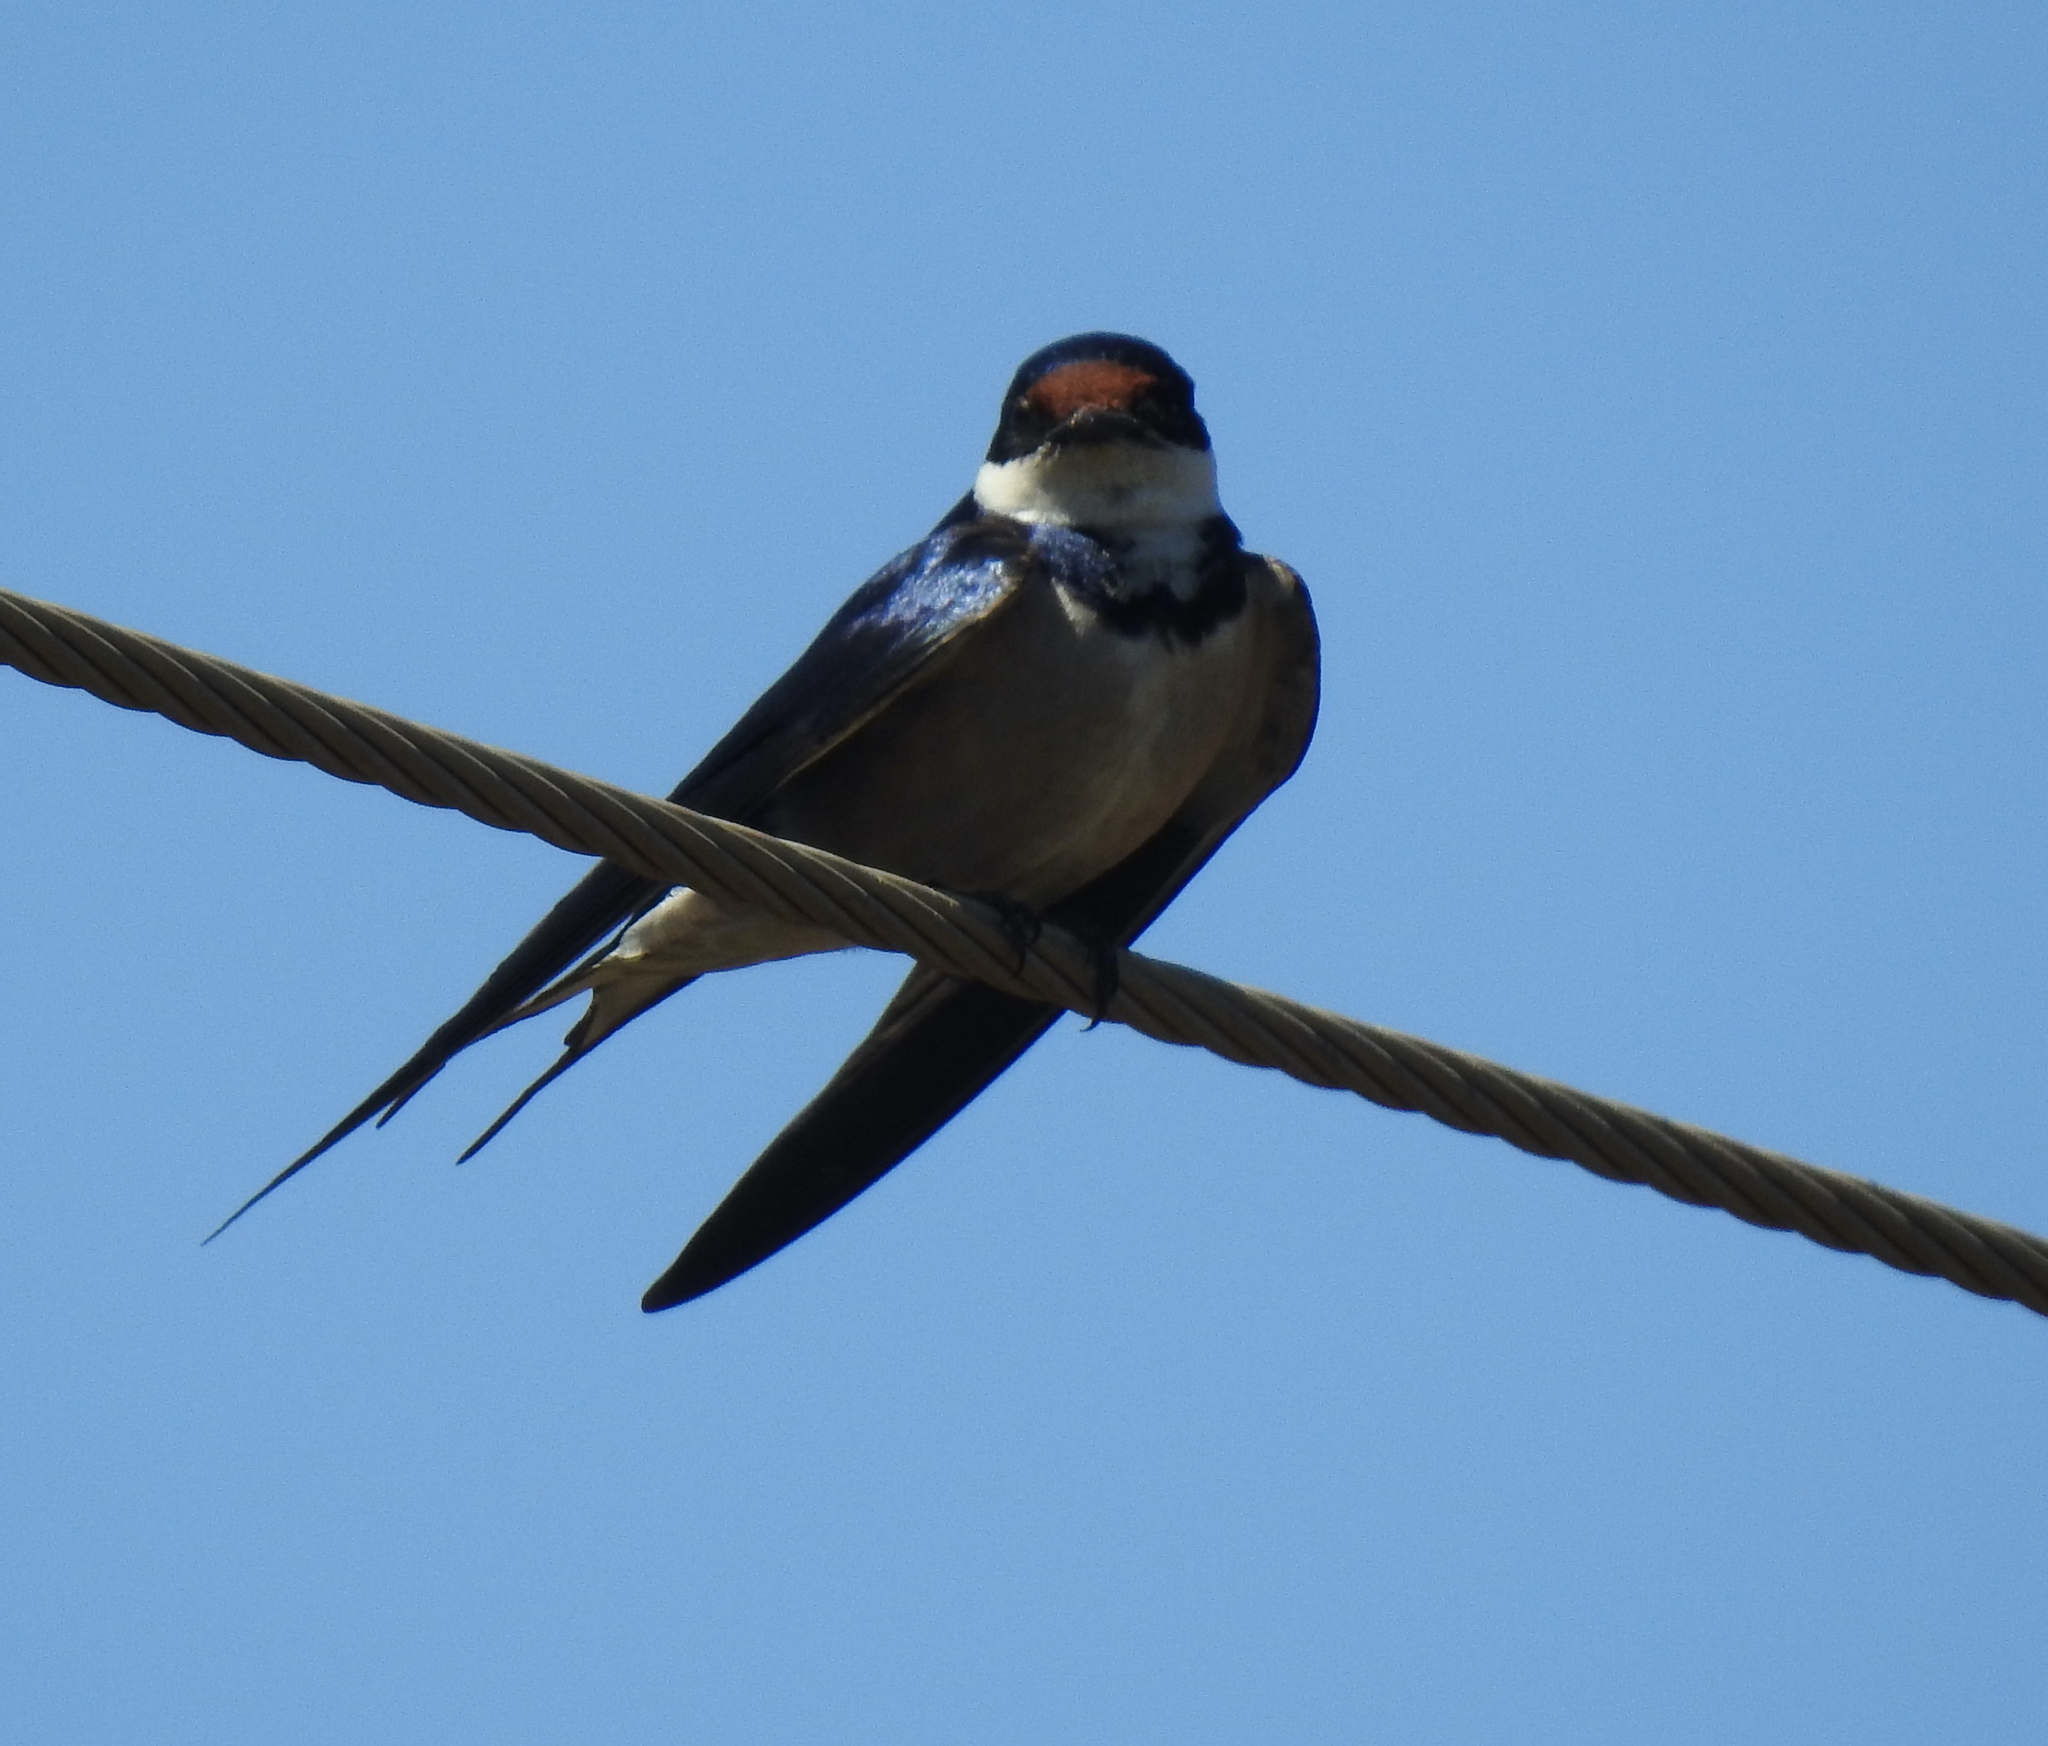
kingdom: Animalia
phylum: Chordata
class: Aves
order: Passeriformes
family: Hirundinidae
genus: Hirundo
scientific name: Hirundo albigularis
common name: White-throated swallow
